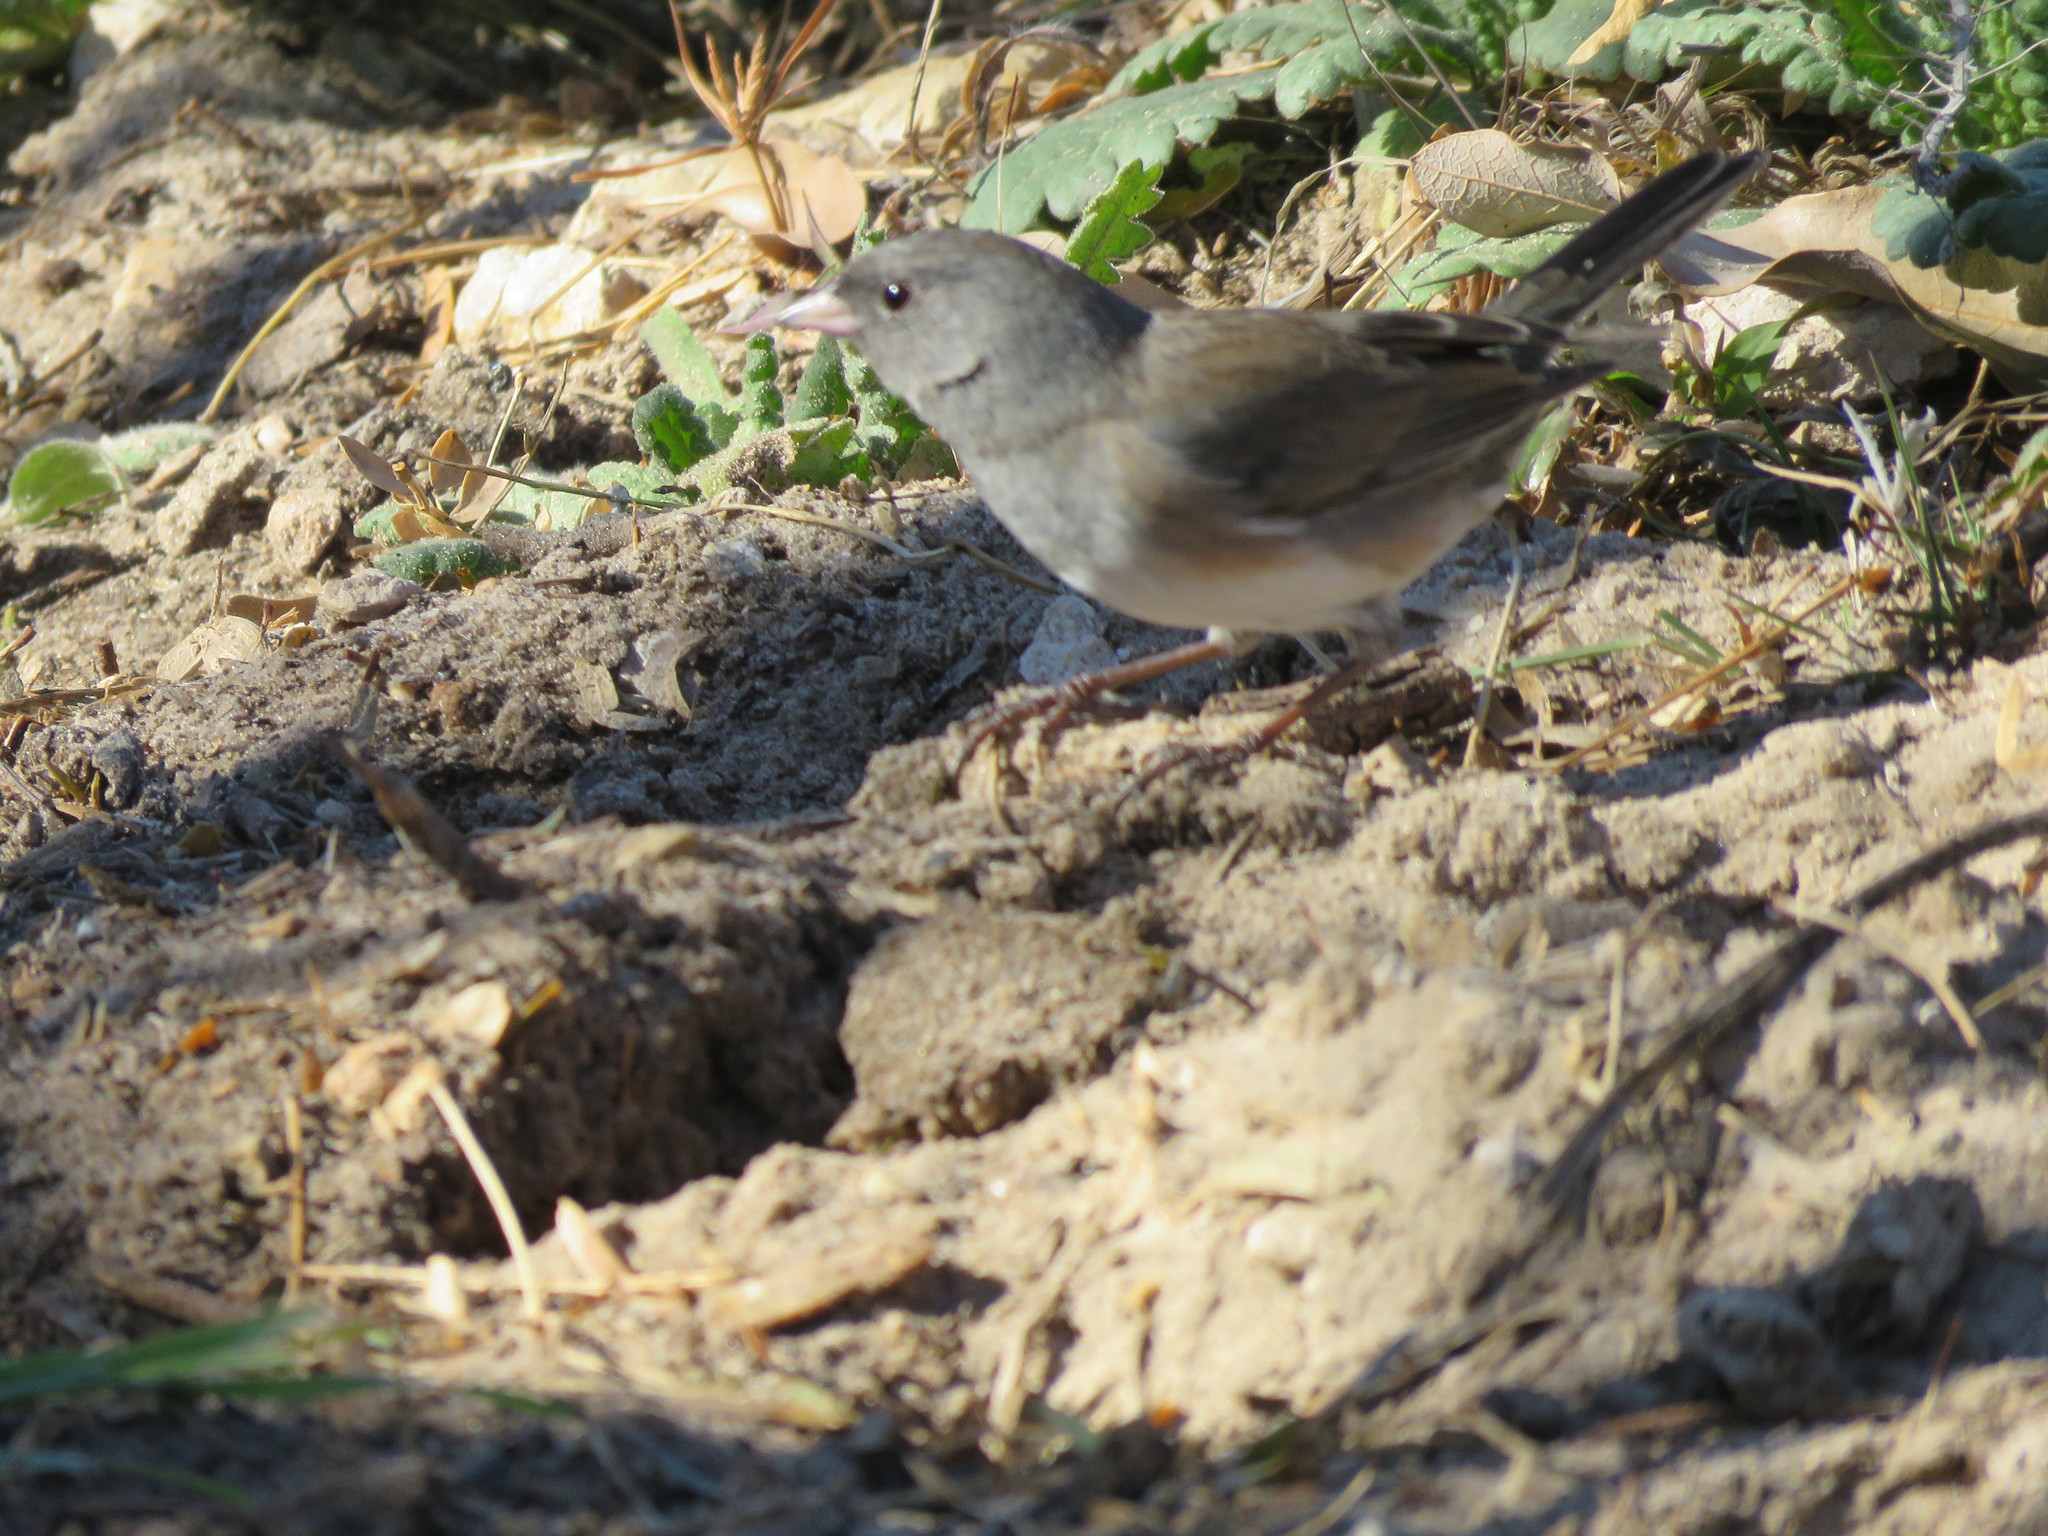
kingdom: Animalia
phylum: Chordata
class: Aves
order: Passeriformes
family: Passerellidae
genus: Junco
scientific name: Junco hyemalis
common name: Dark-eyed junco
